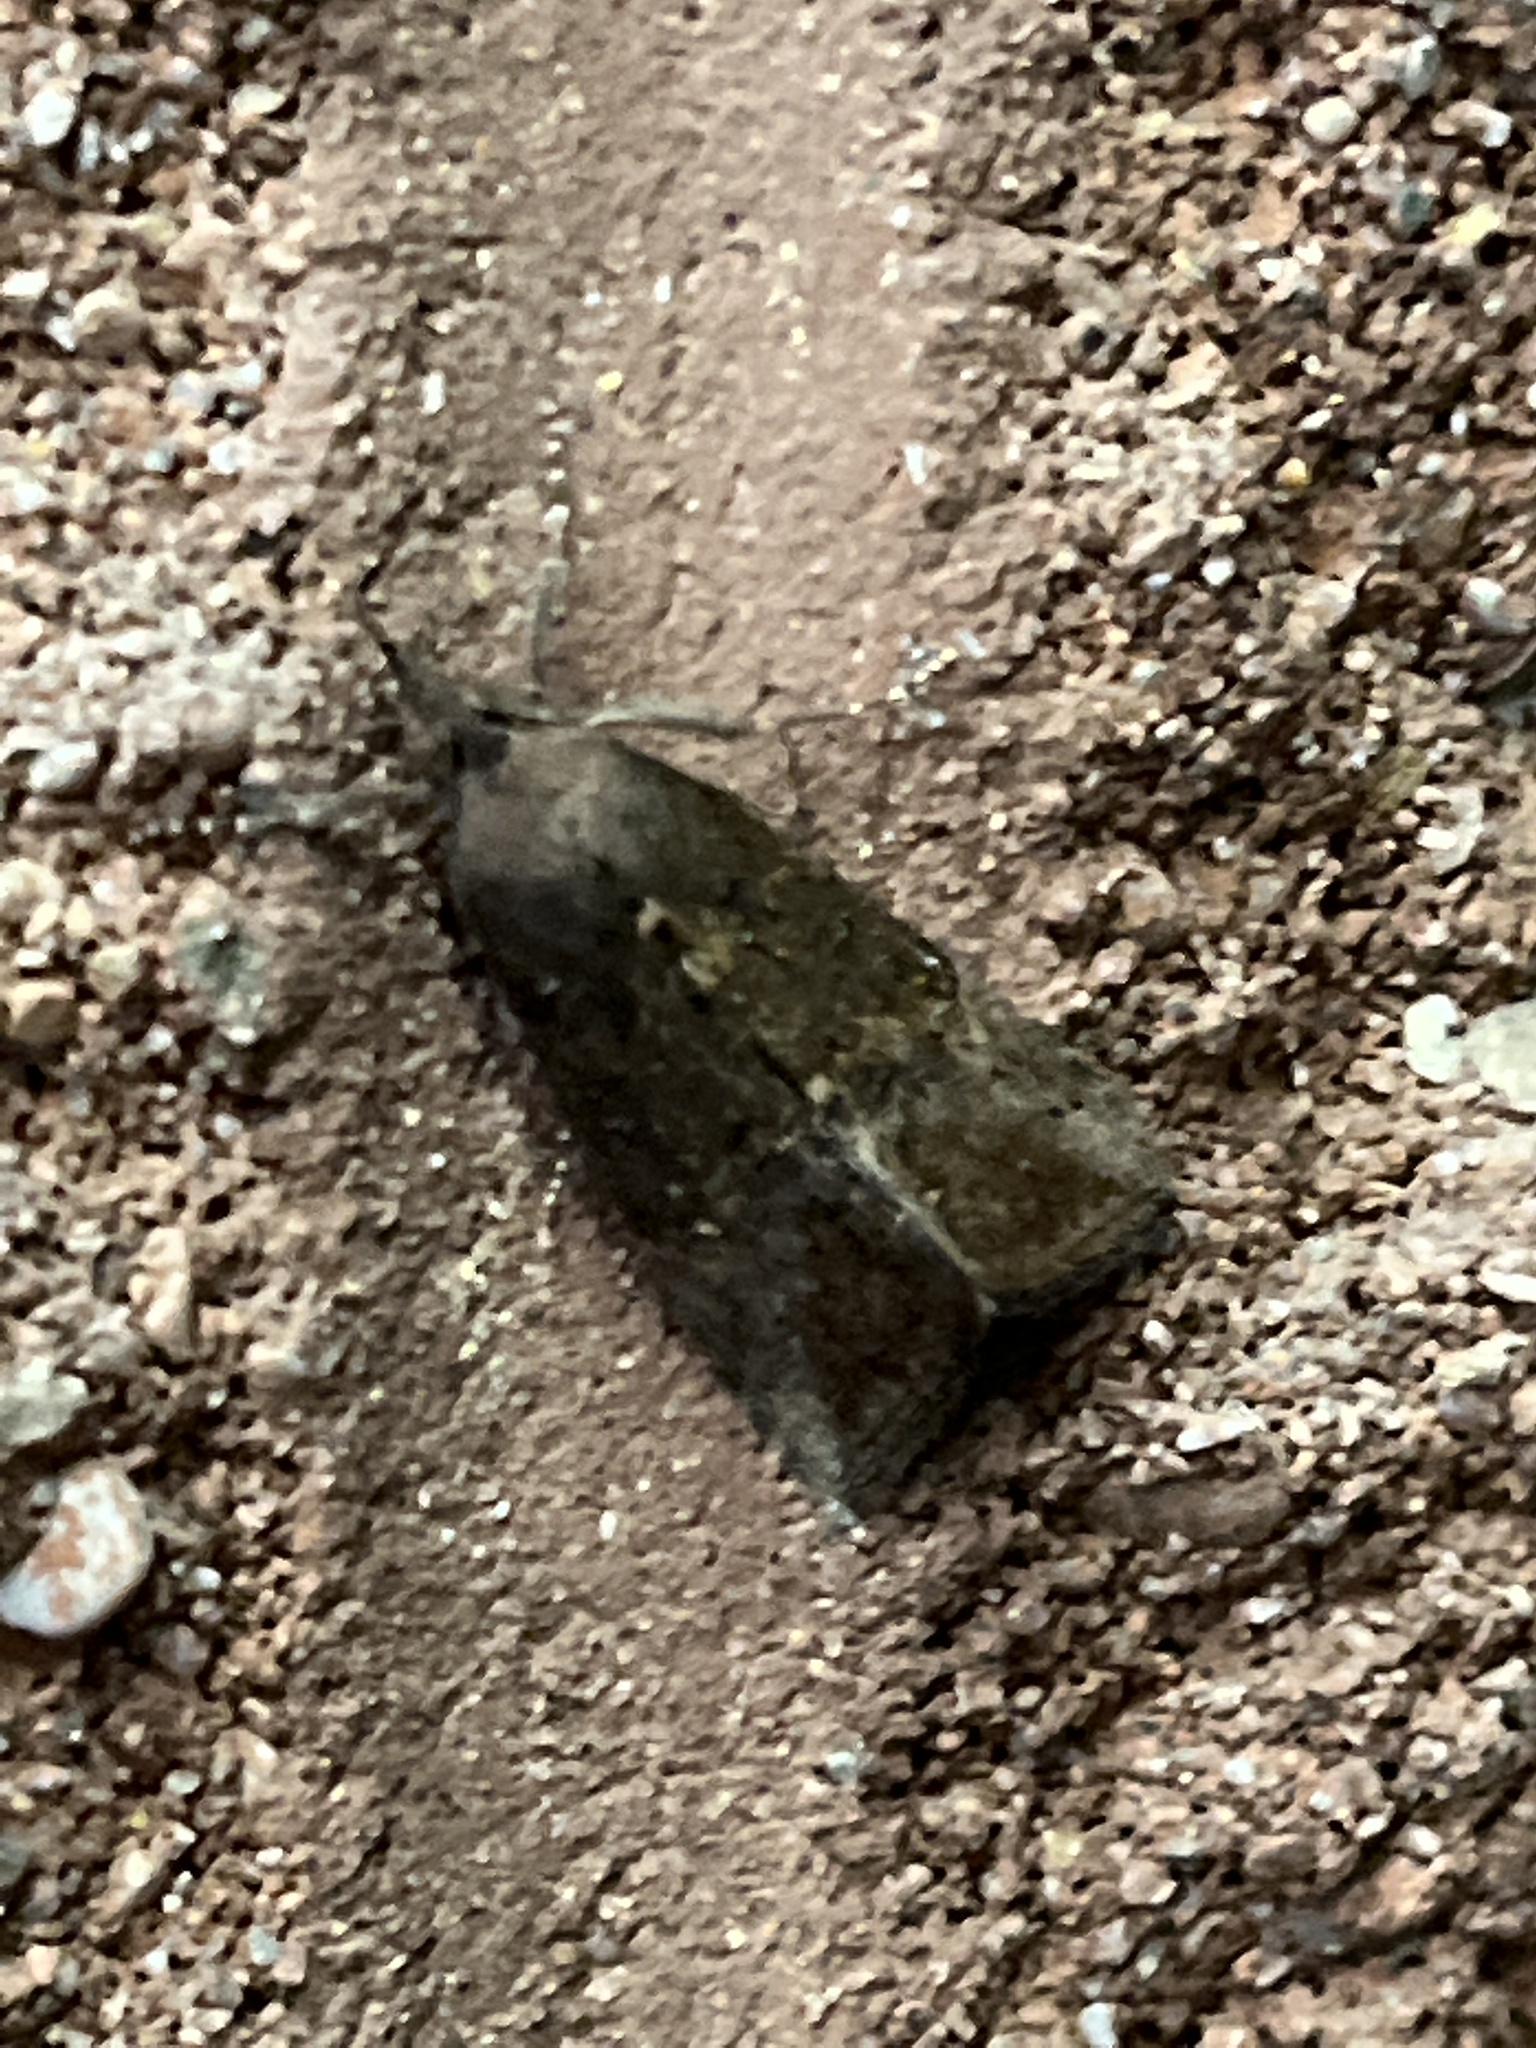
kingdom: Animalia
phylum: Arthropoda
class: Insecta
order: Lepidoptera
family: Erebidae
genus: Hypena
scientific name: Hypena scabra
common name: Green cloverworm
